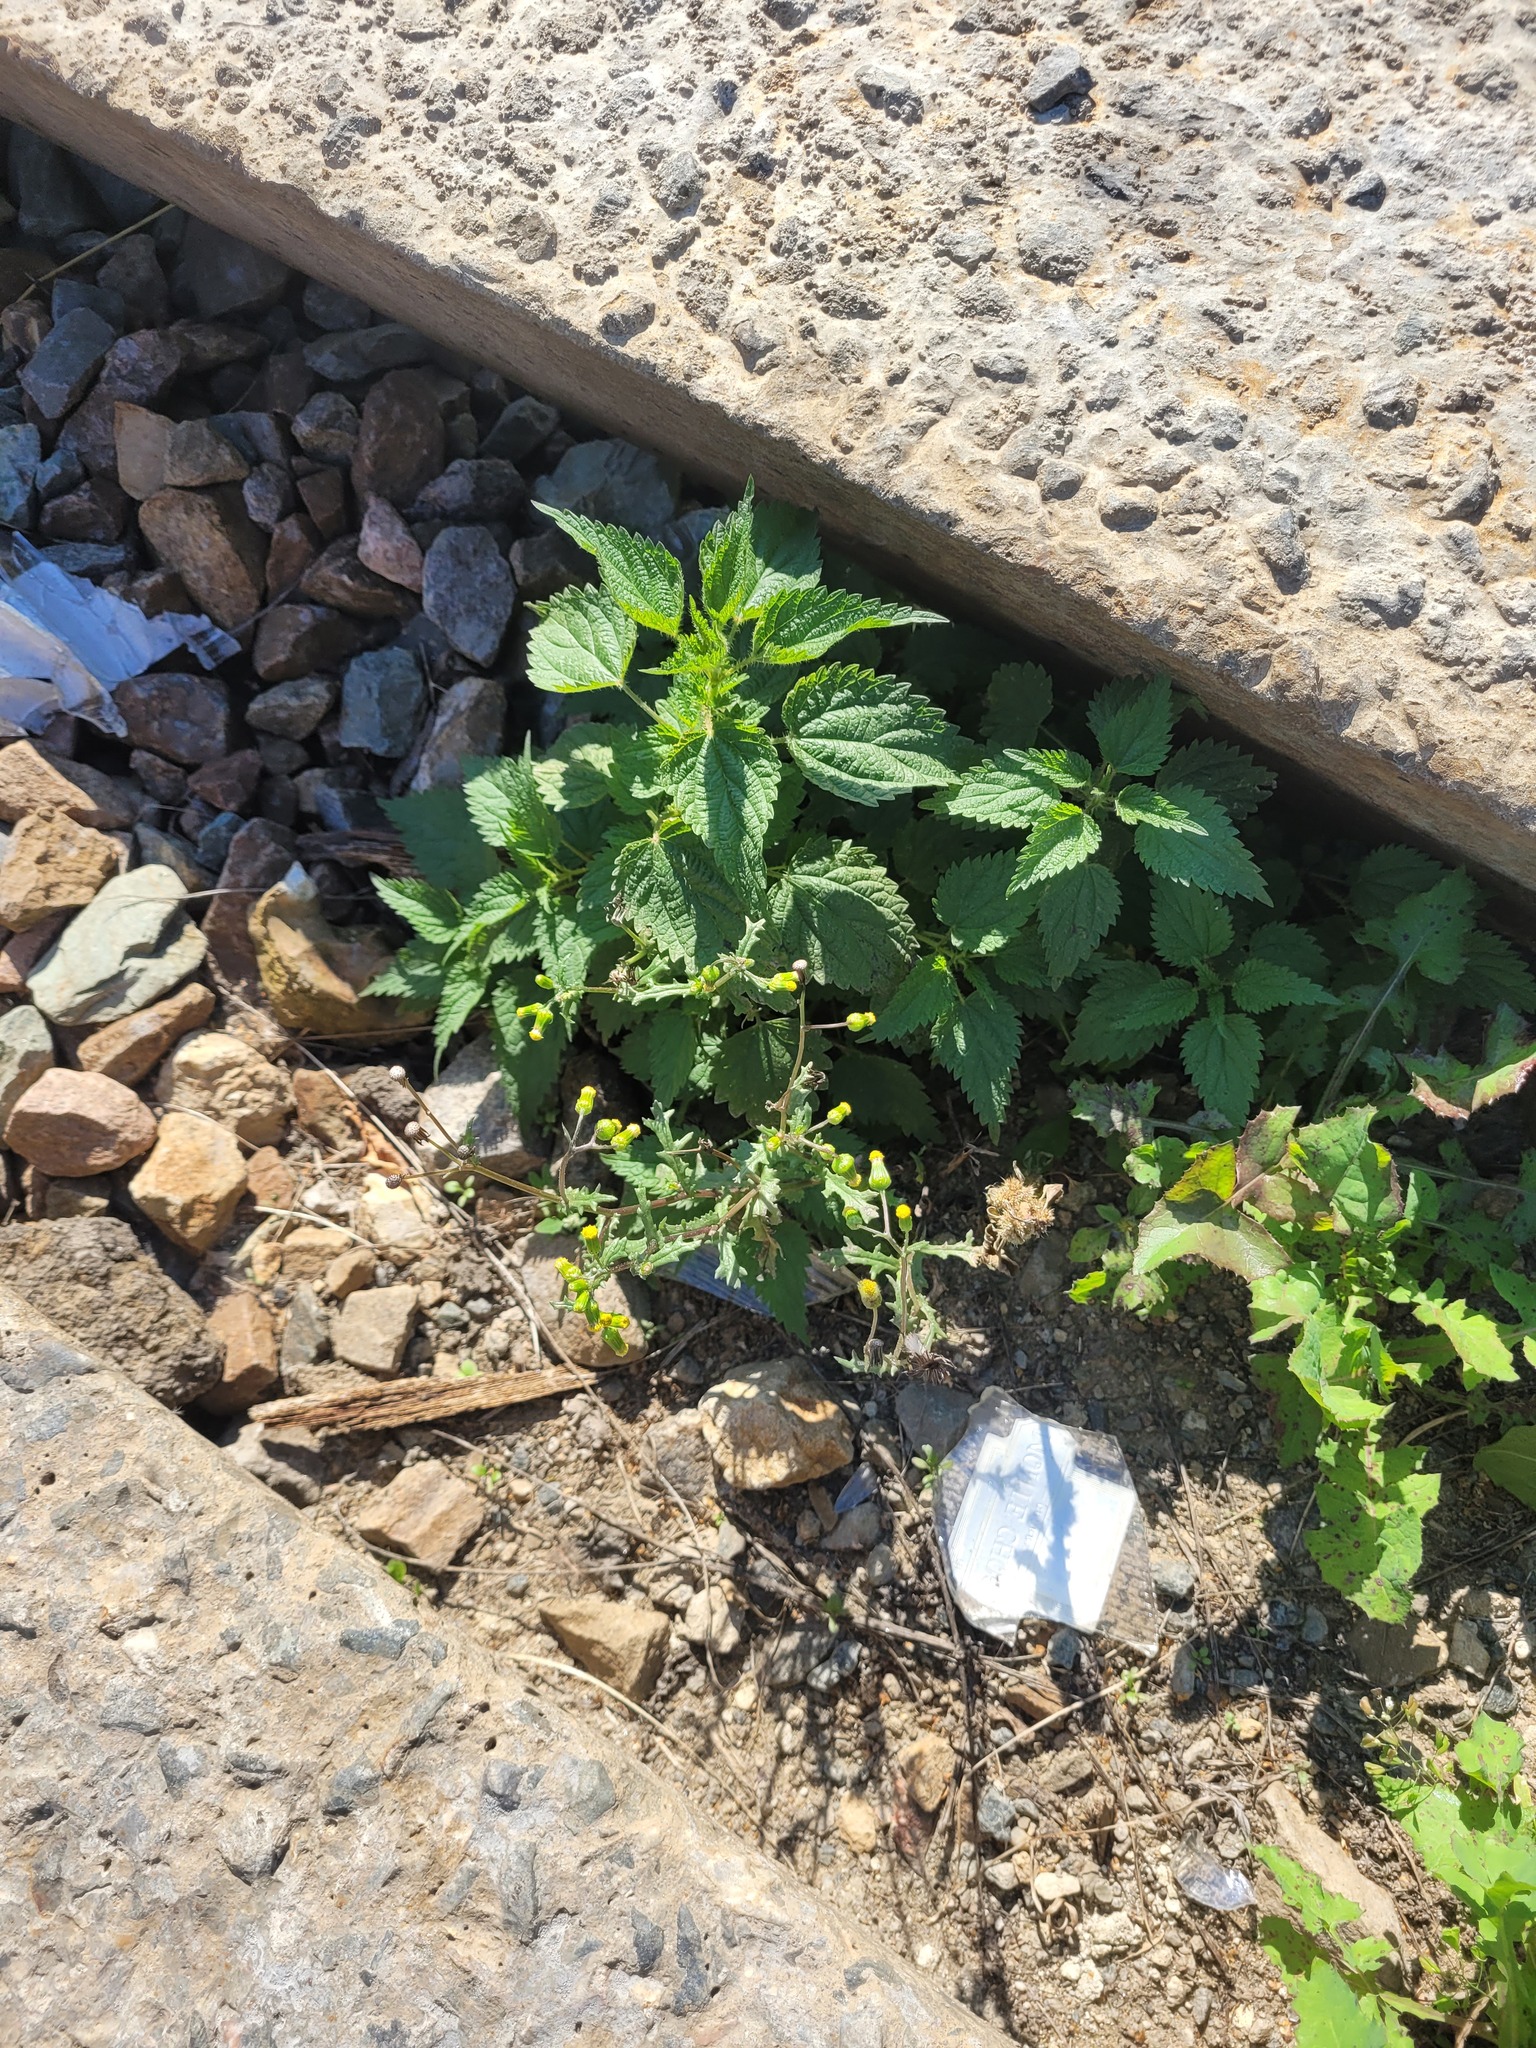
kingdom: Plantae
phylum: Tracheophyta
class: Magnoliopsida
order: Asterales
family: Asteraceae
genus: Senecio
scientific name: Senecio vulgaris
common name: Old-man-in-the-spring
